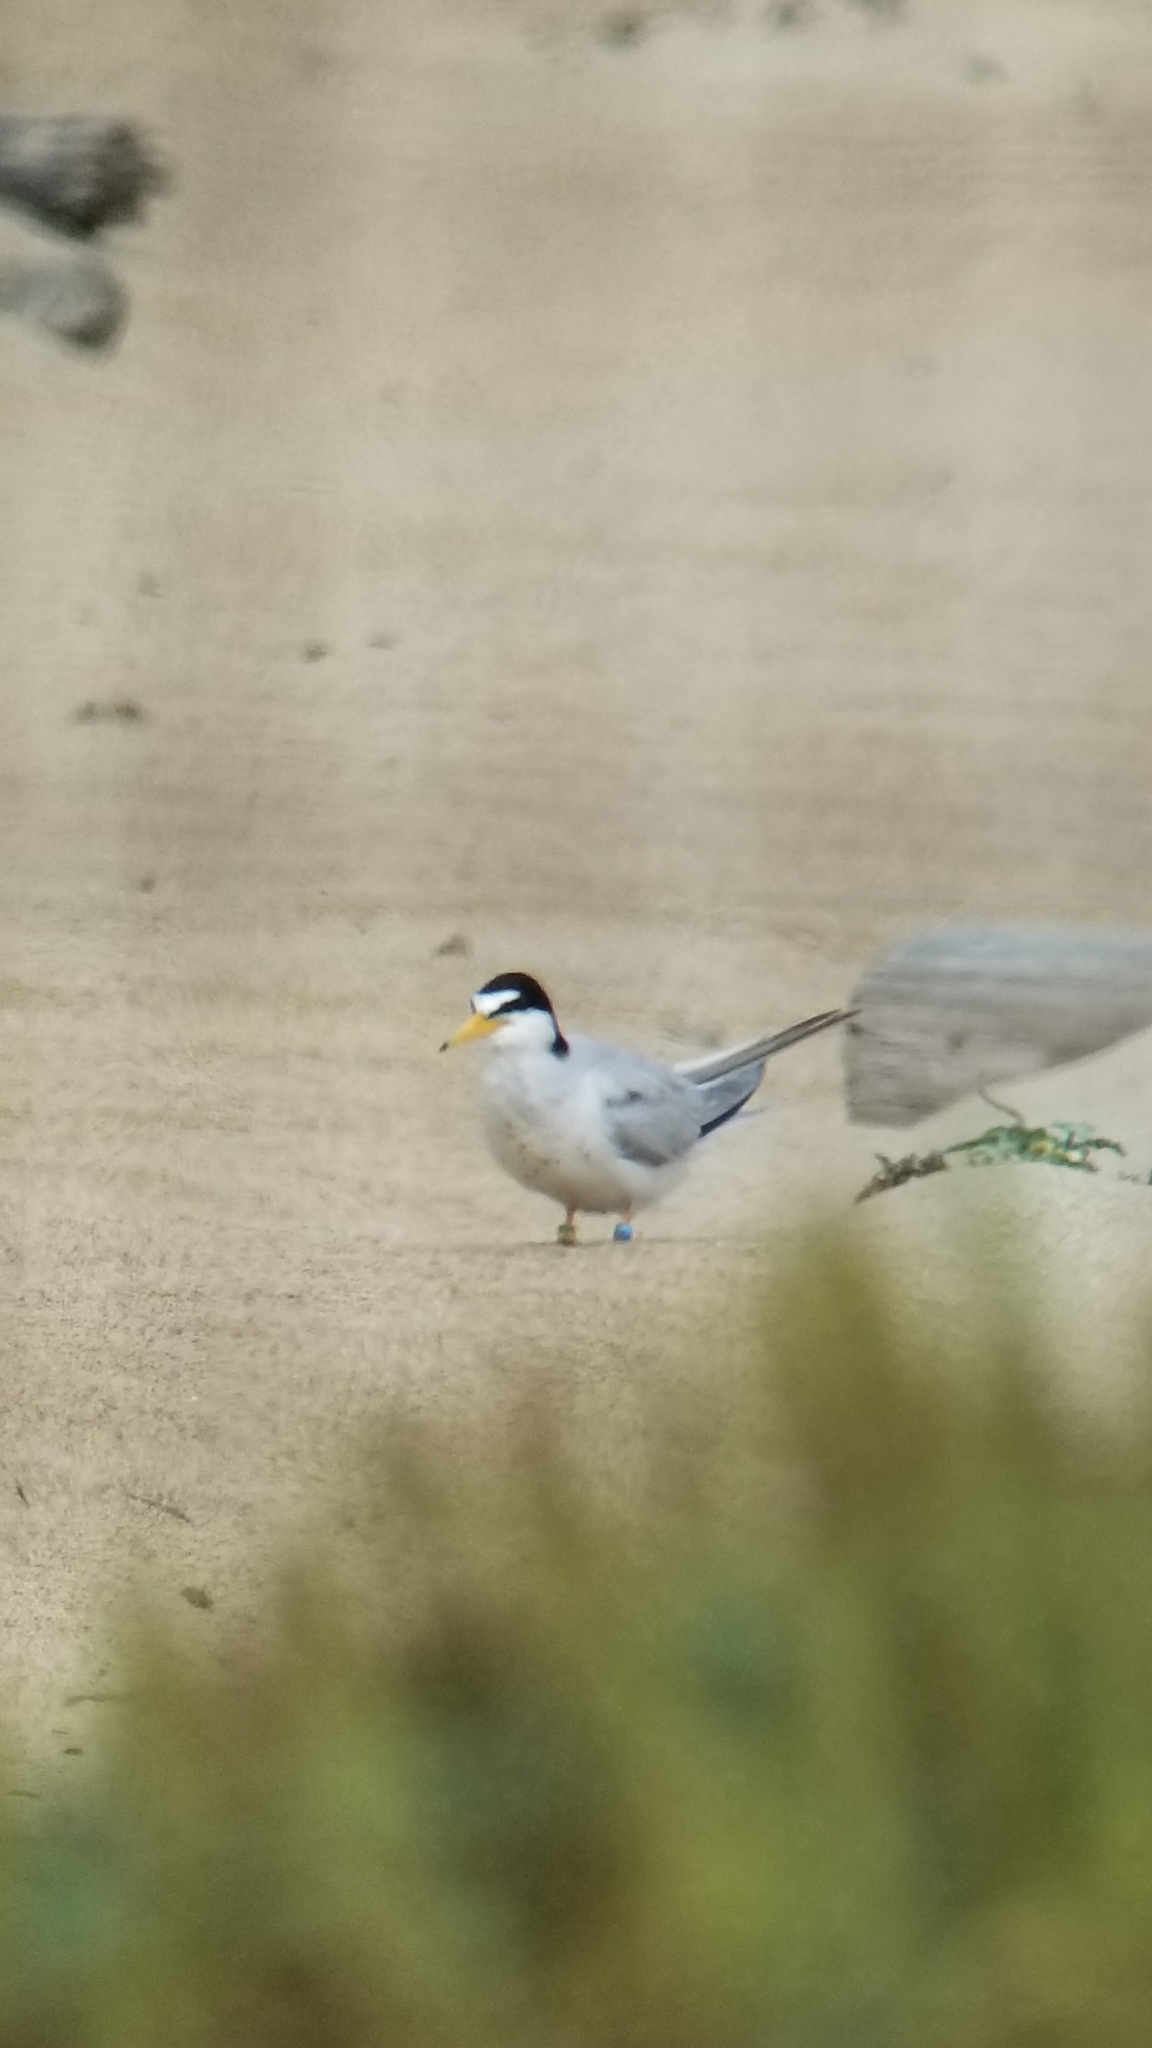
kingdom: Animalia
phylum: Chordata
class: Aves
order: Charadriiformes
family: Laridae
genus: Sternula
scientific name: Sternula antillarum
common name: Least tern
